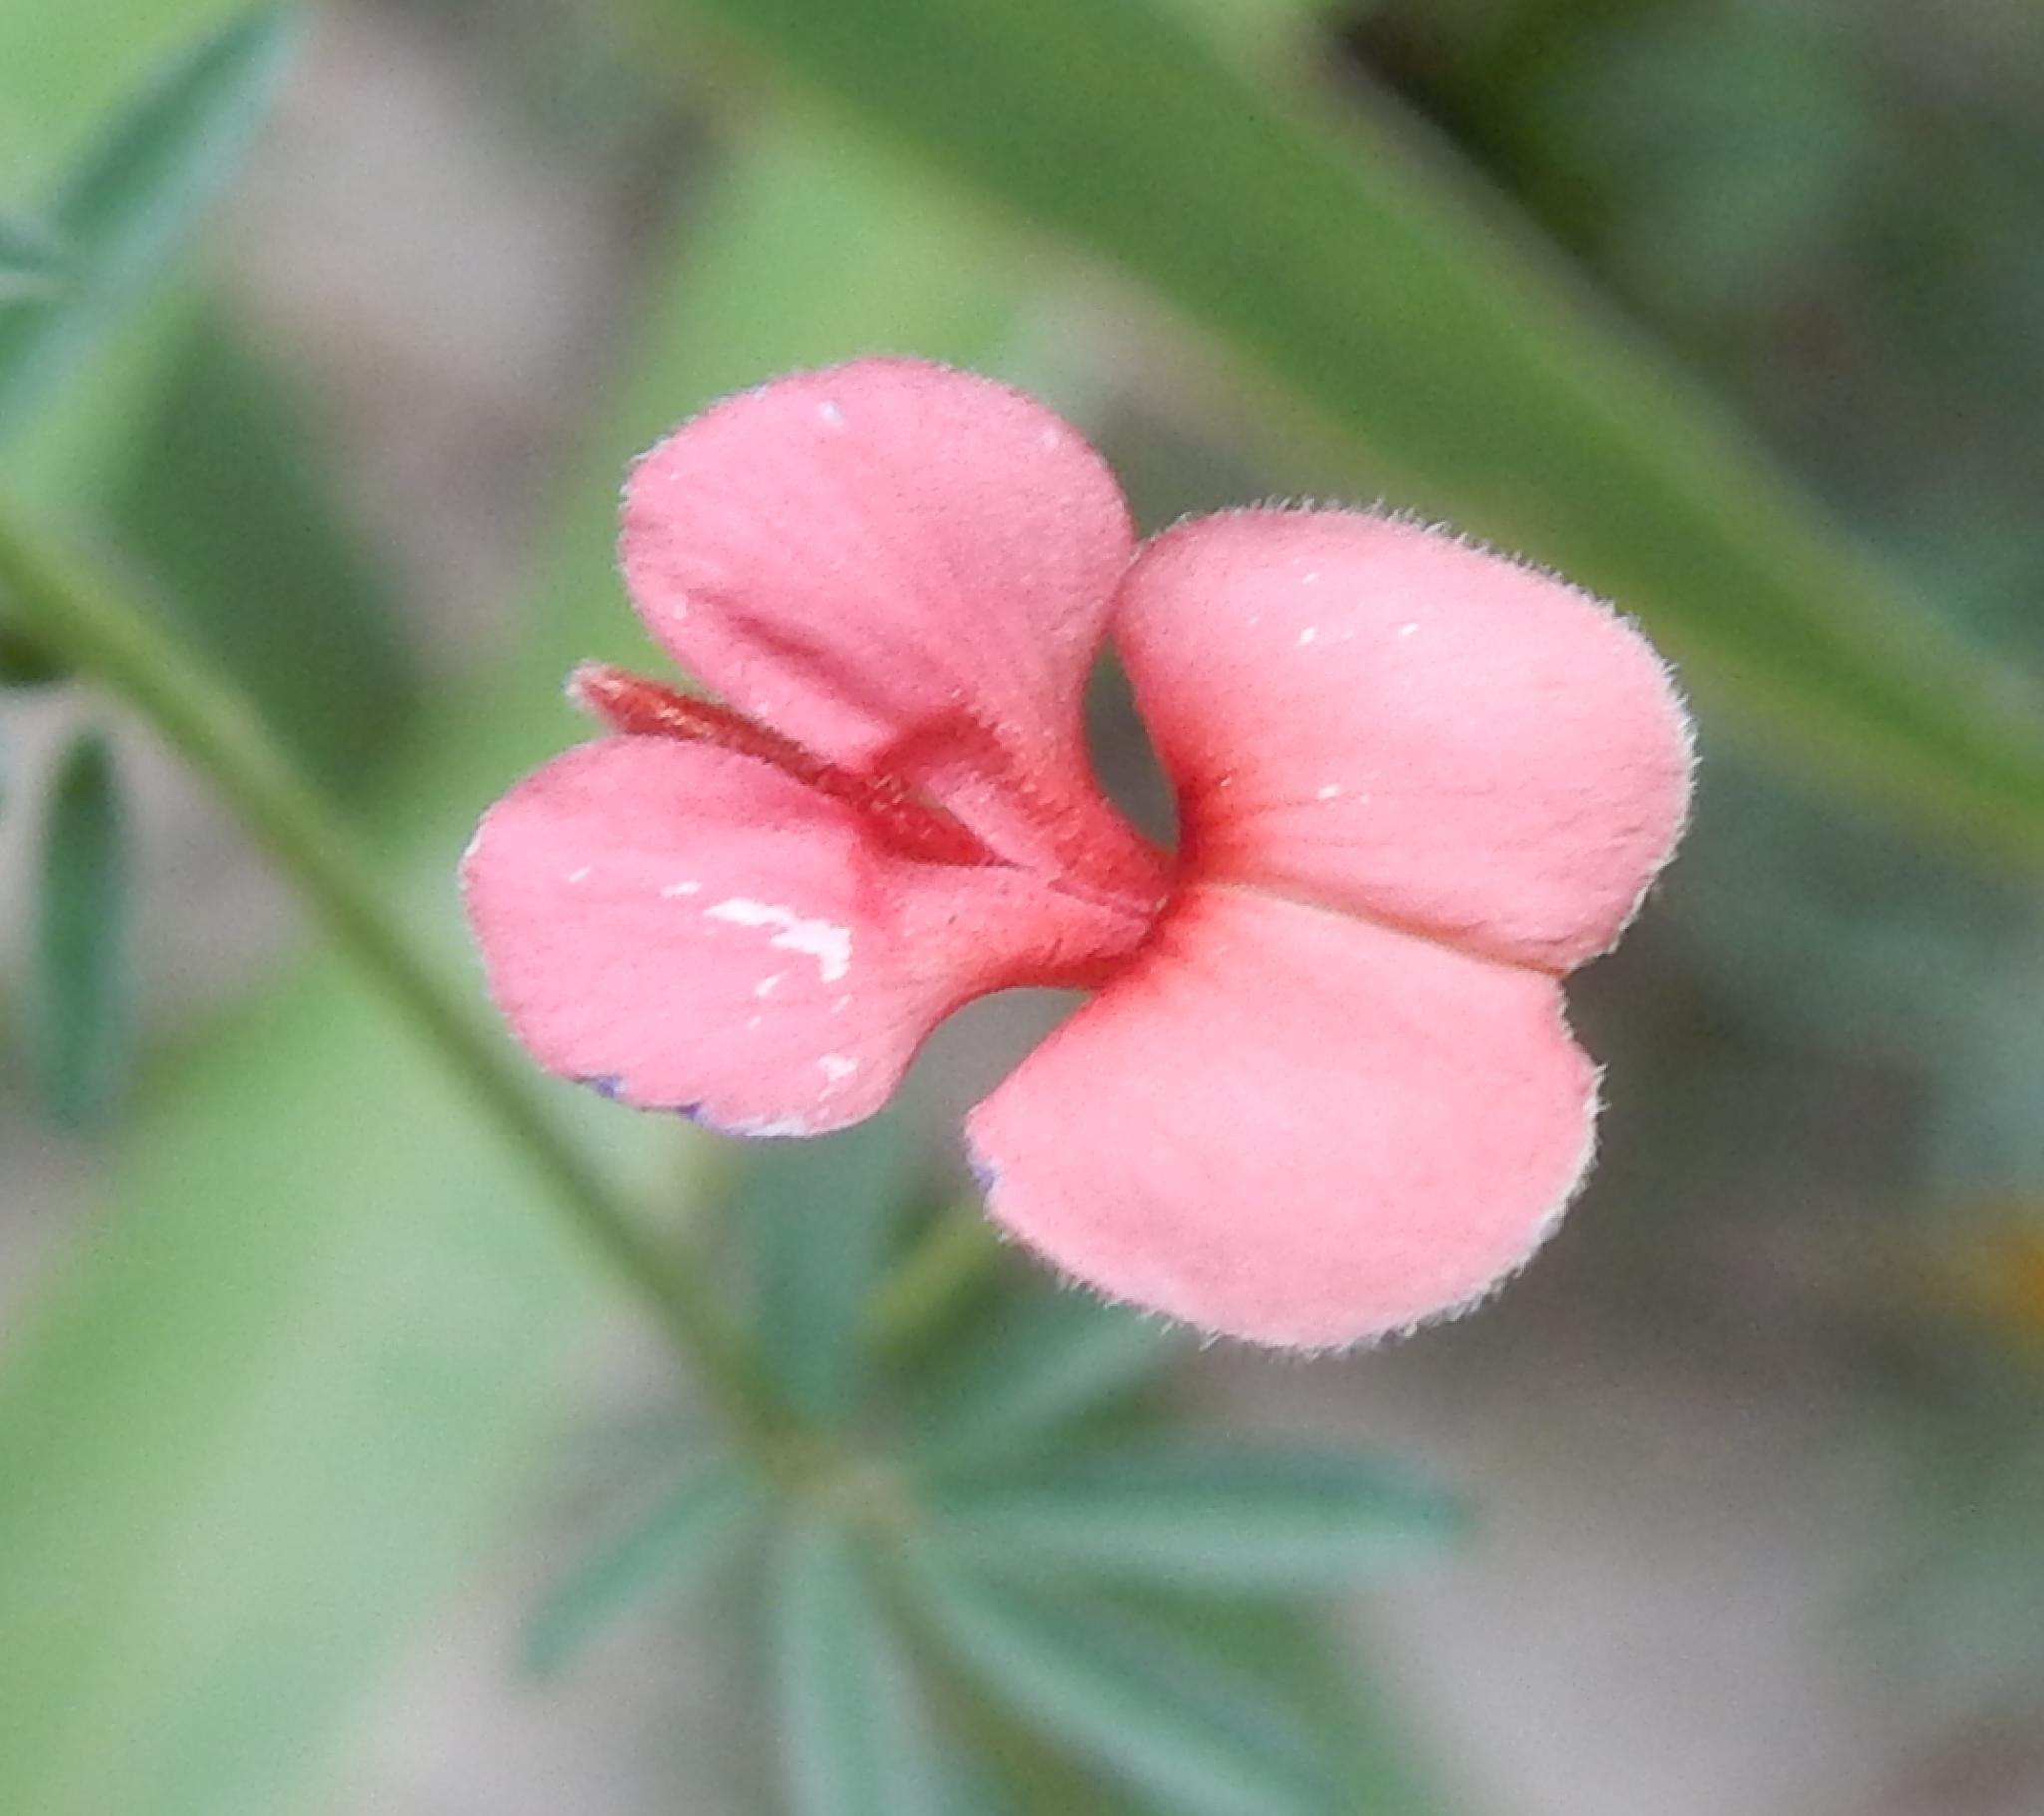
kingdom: Plantae
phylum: Tracheophyta
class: Magnoliopsida
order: Fabales
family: Fabaceae
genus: Indigofera
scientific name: Indigofera disticha
